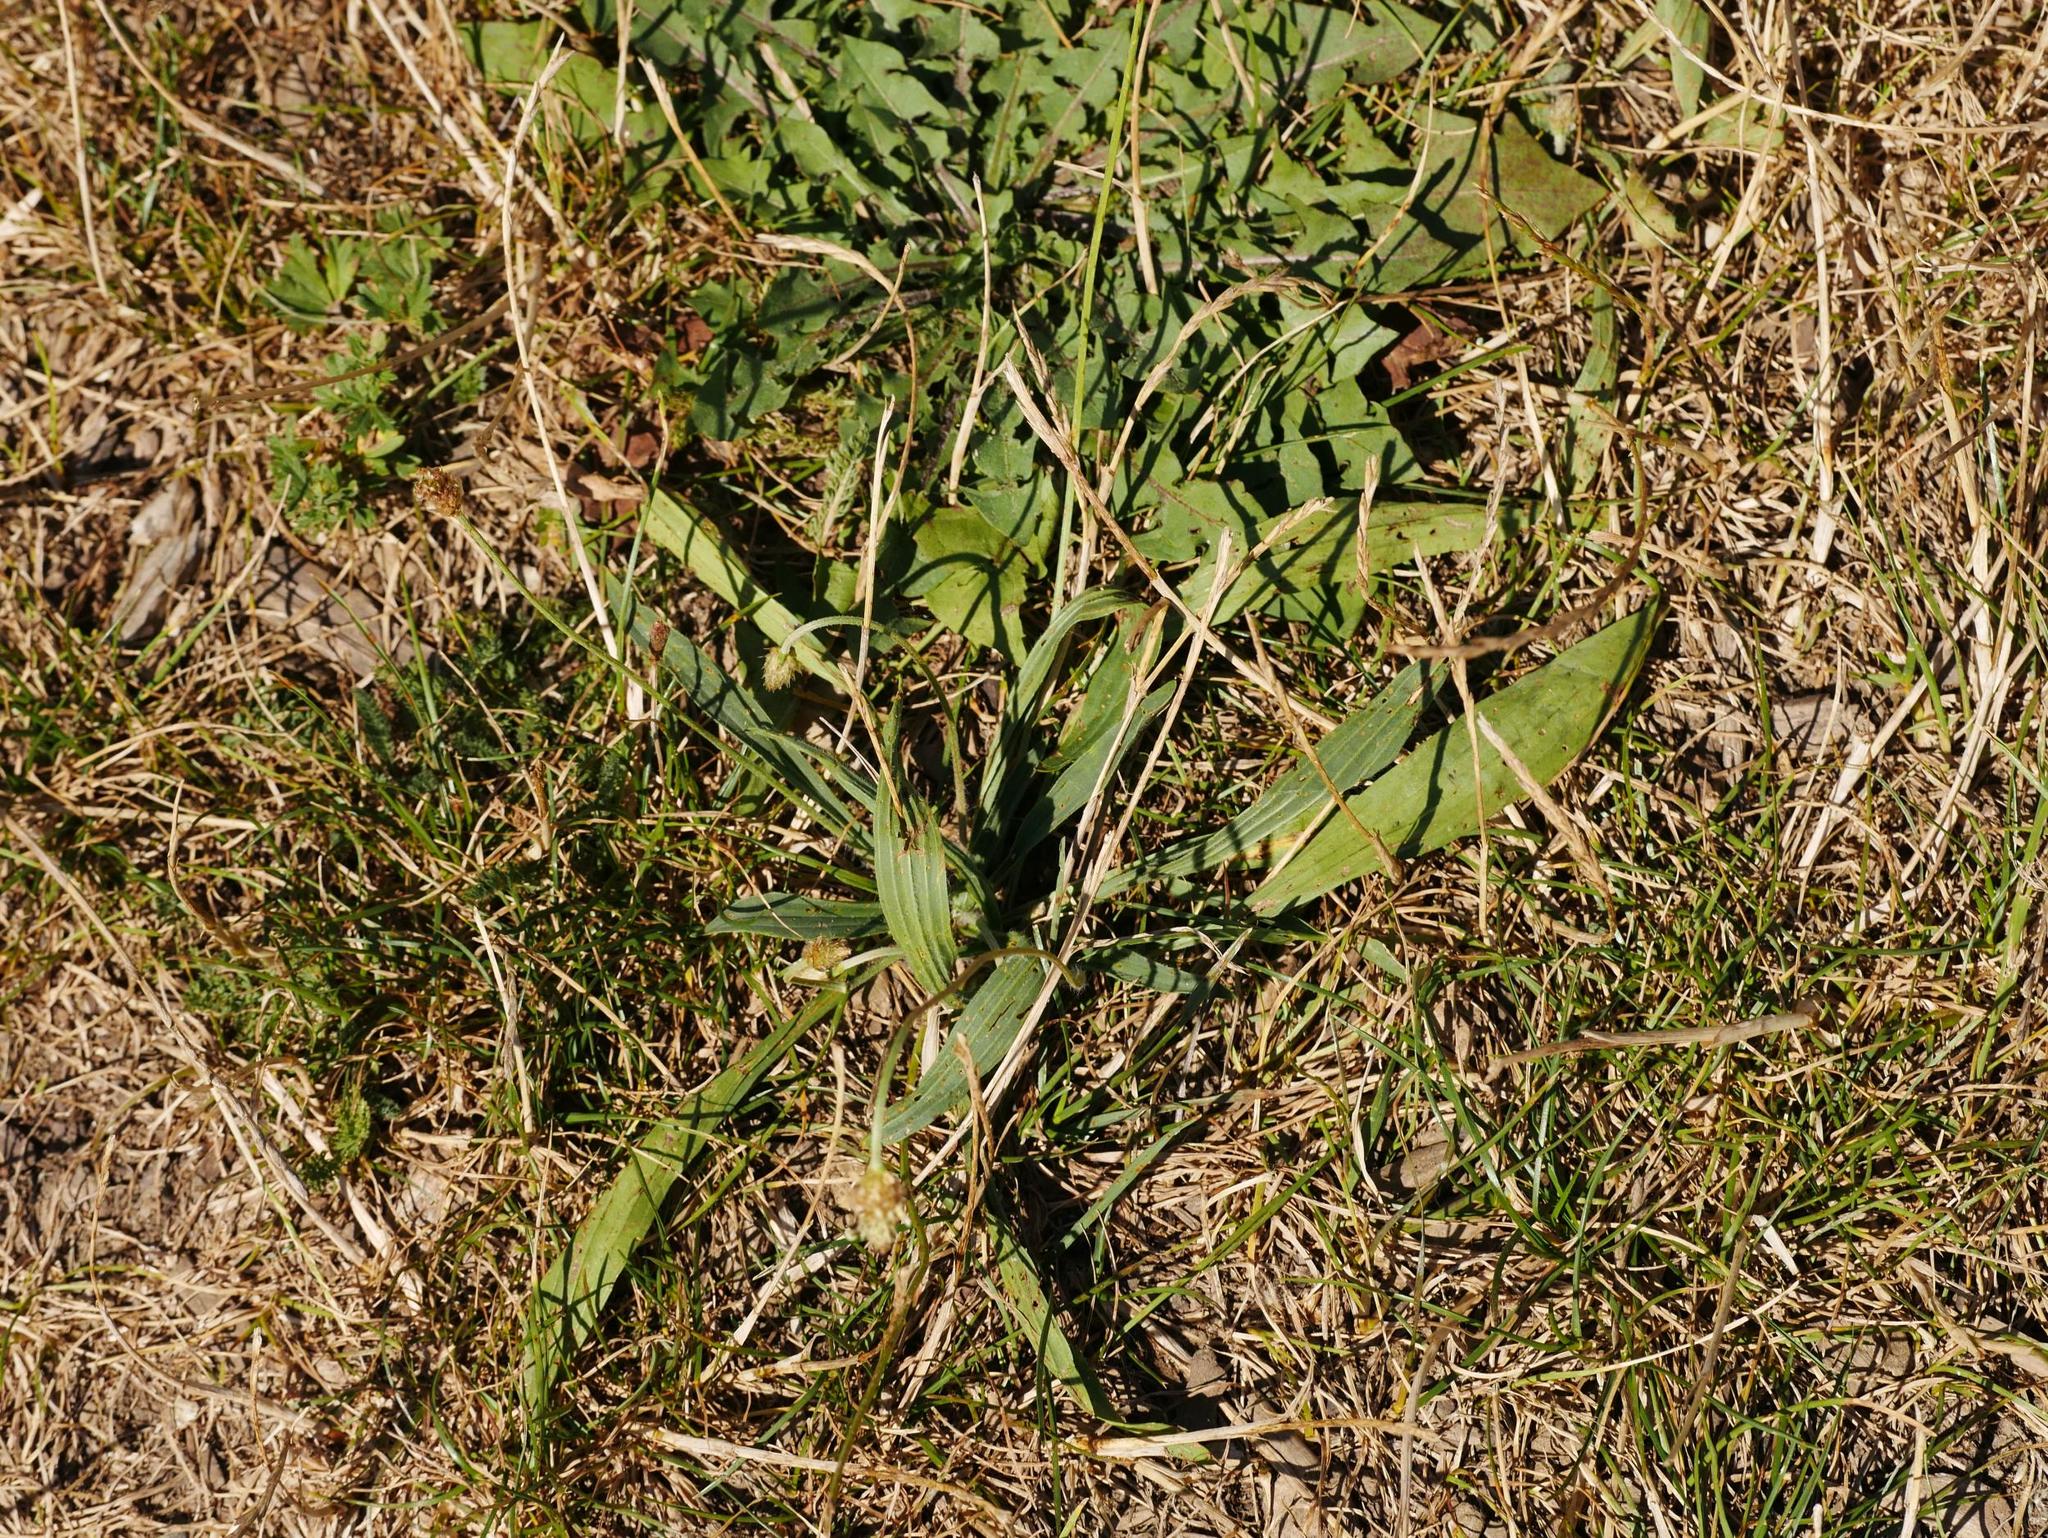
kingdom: Plantae
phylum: Tracheophyta
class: Magnoliopsida
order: Lamiales
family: Plantaginaceae
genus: Plantago
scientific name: Plantago lanceolata
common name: Ribwort plantain
